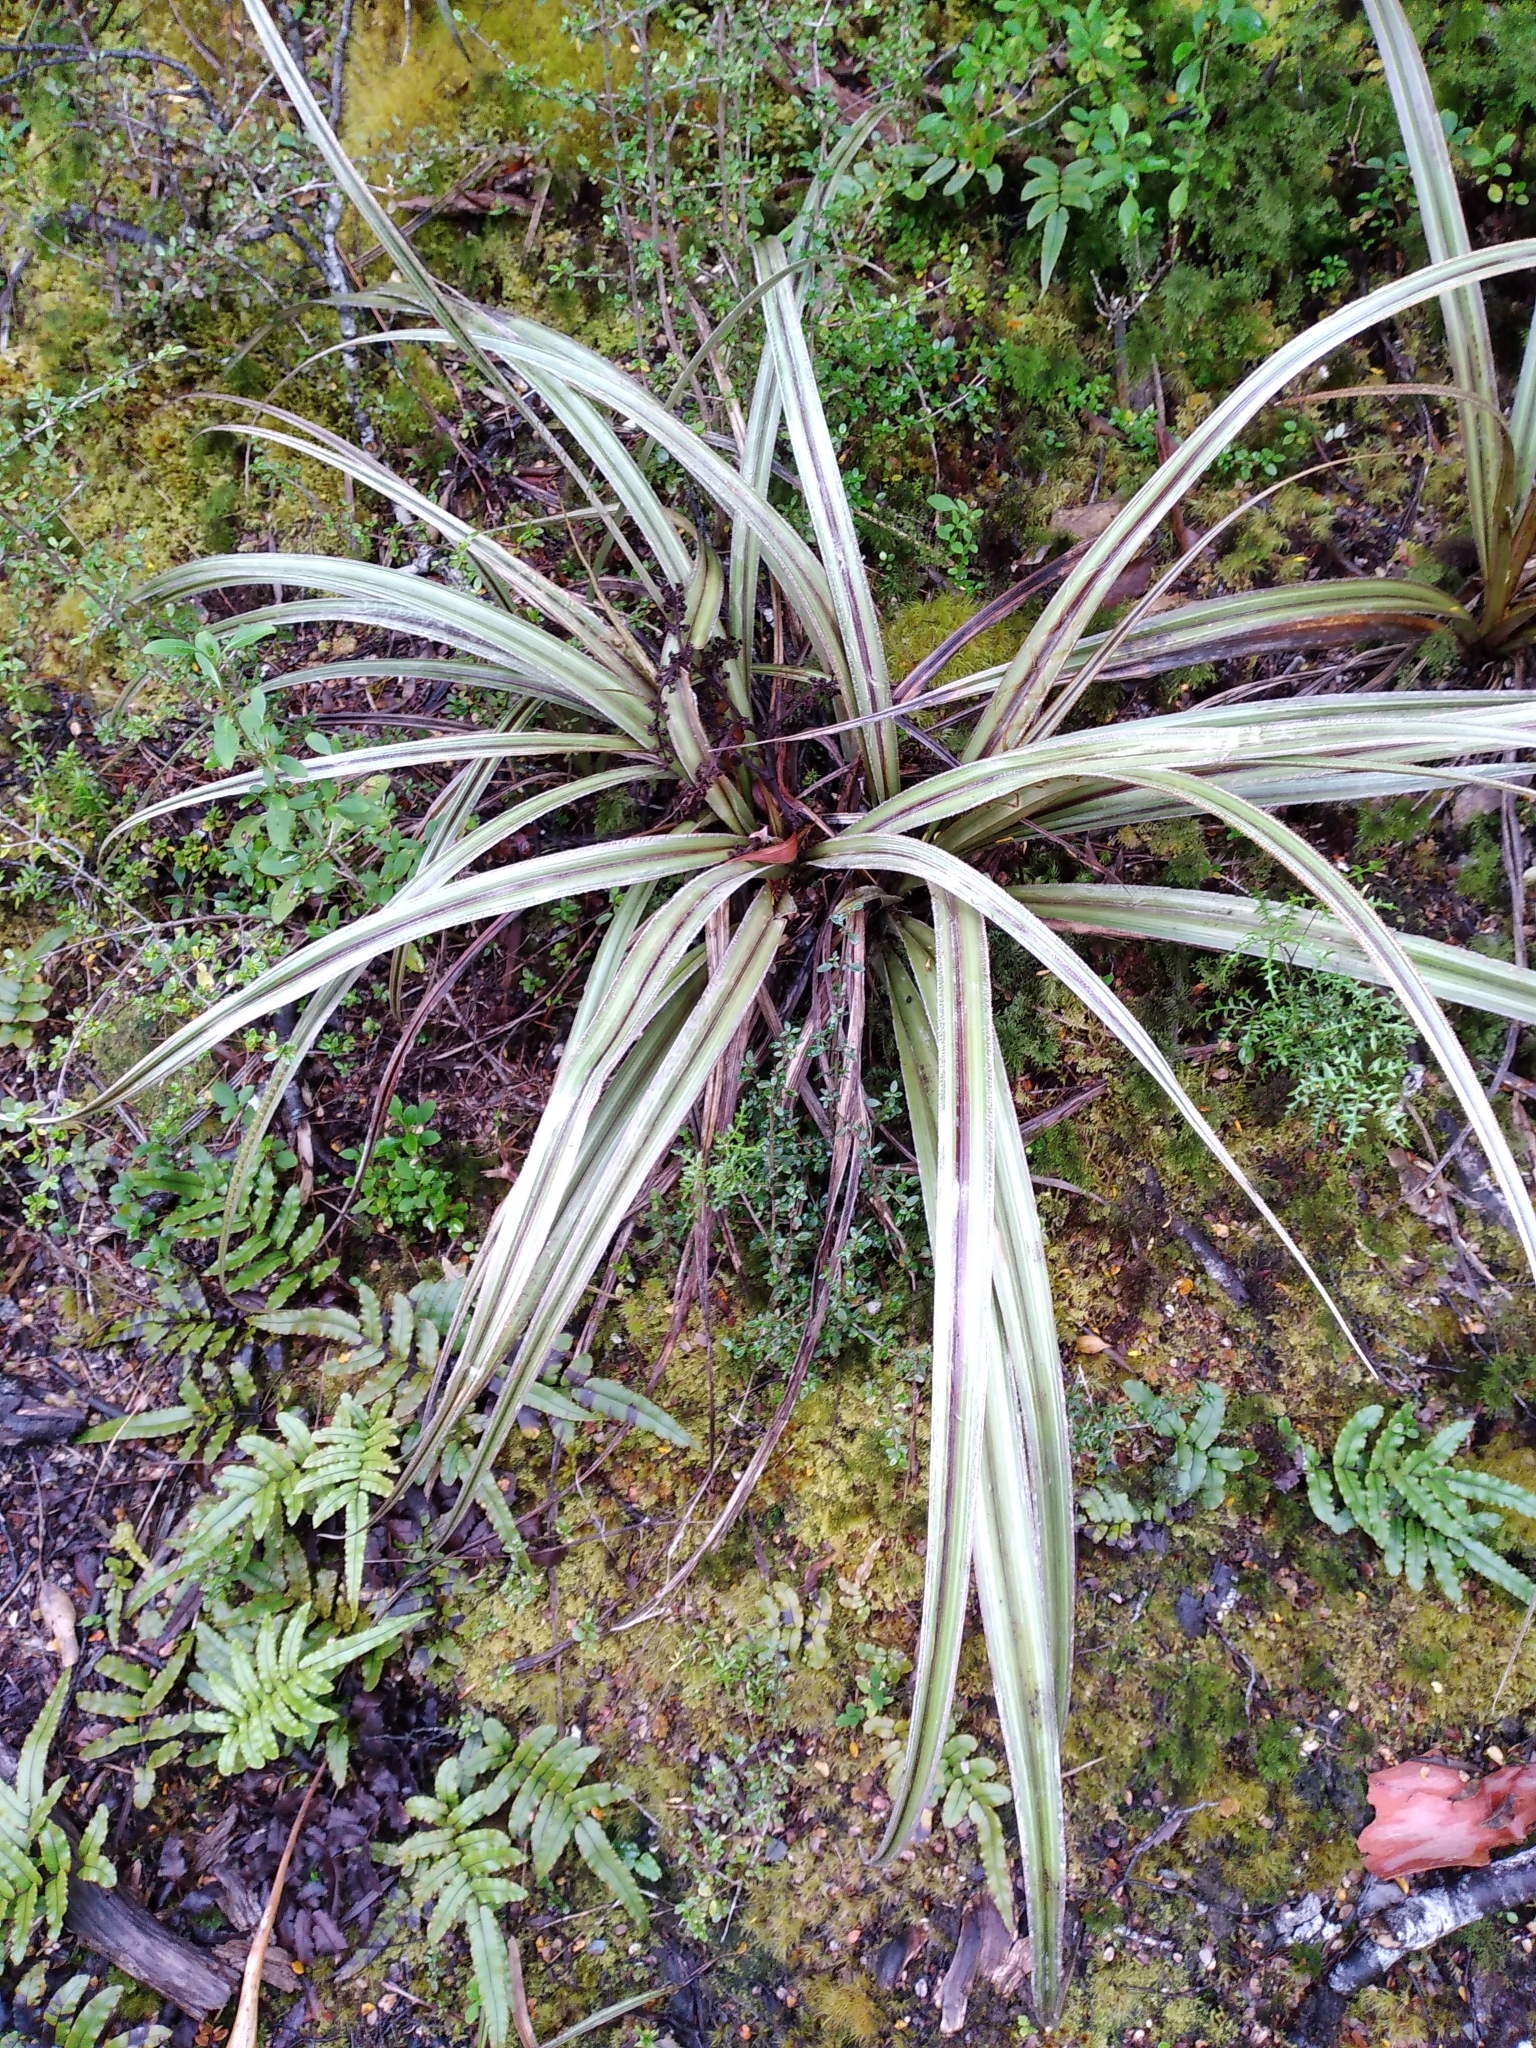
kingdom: Plantae
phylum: Tracheophyta
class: Liliopsida
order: Asparagales
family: Asteliaceae
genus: Astelia
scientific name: Astelia nervosa
